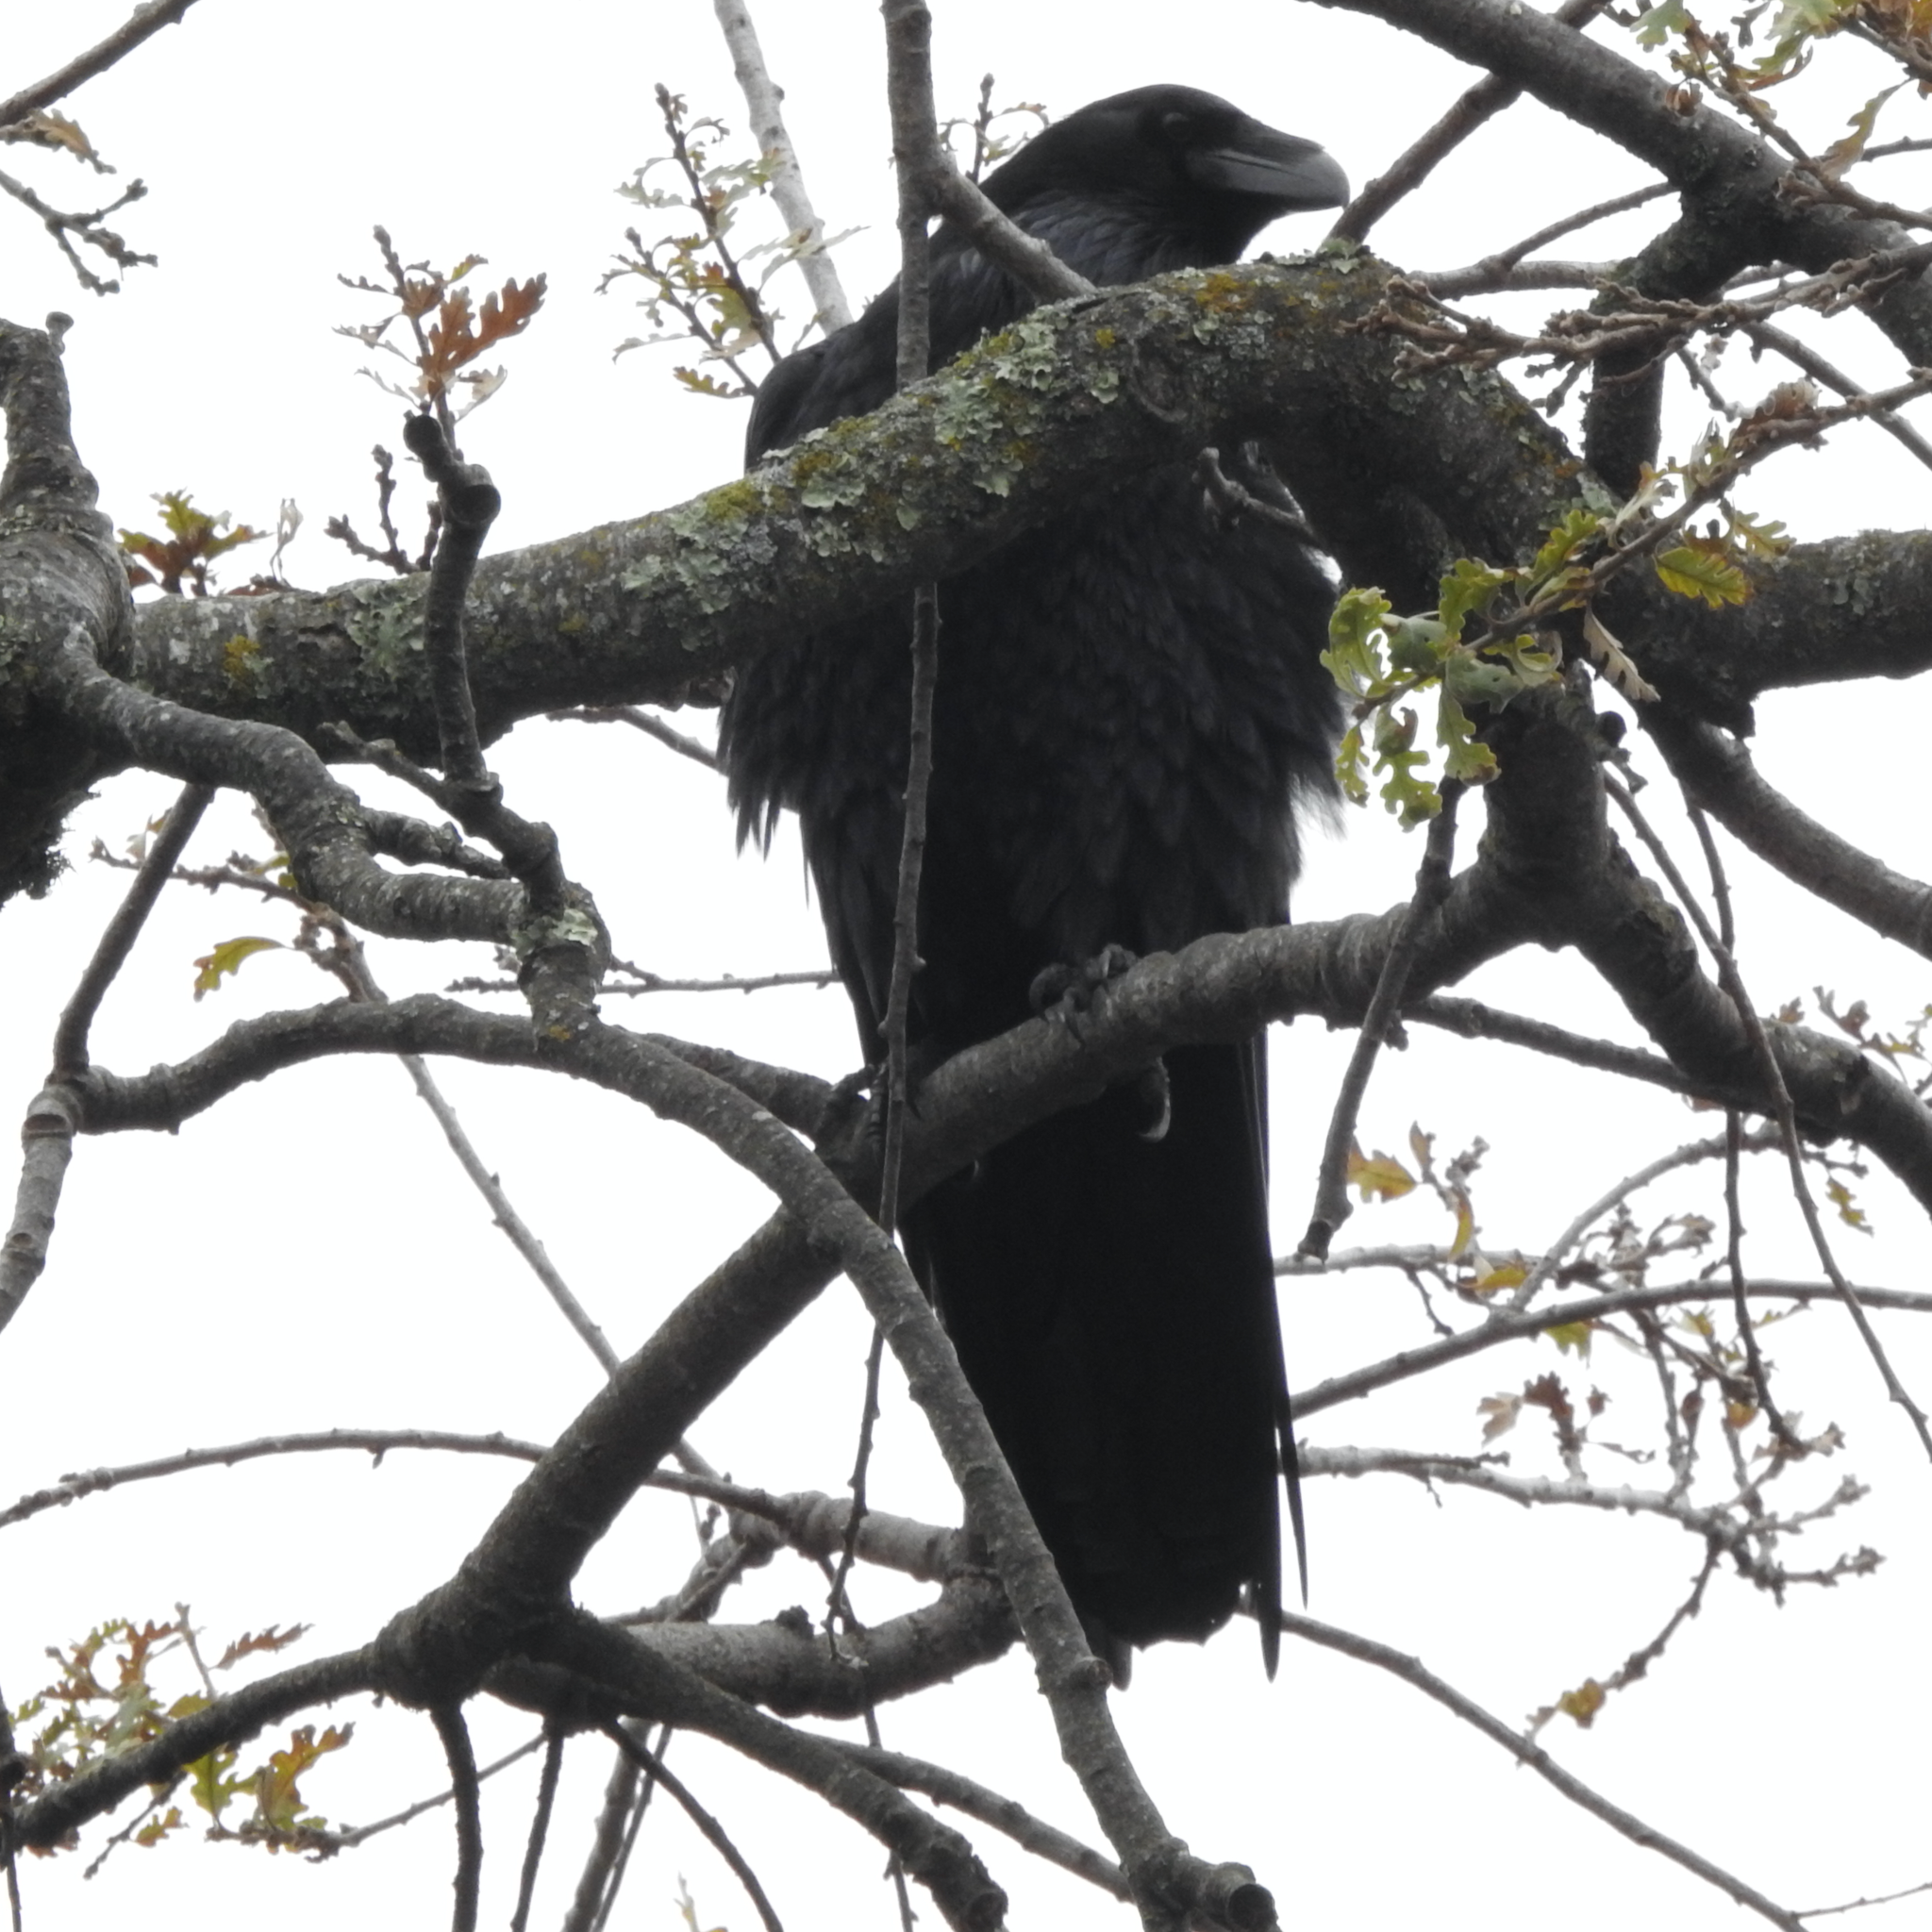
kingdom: Animalia
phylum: Chordata
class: Aves
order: Passeriformes
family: Corvidae
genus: Corvus
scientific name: Corvus corax
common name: Common raven
